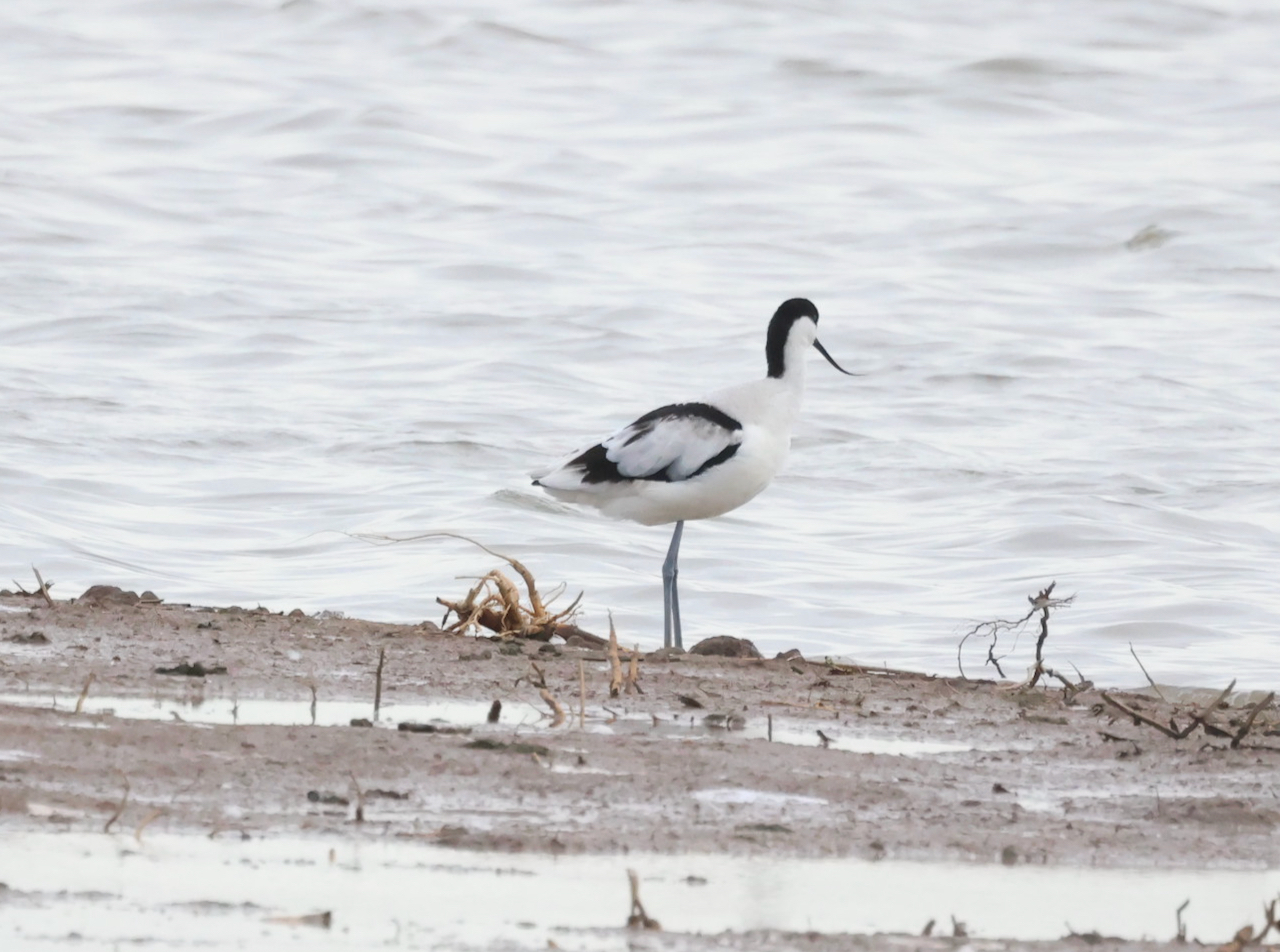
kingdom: Animalia
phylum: Chordata
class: Aves
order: Charadriiformes
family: Recurvirostridae
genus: Recurvirostra
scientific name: Recurvirostra avosetta
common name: Pied avocet
